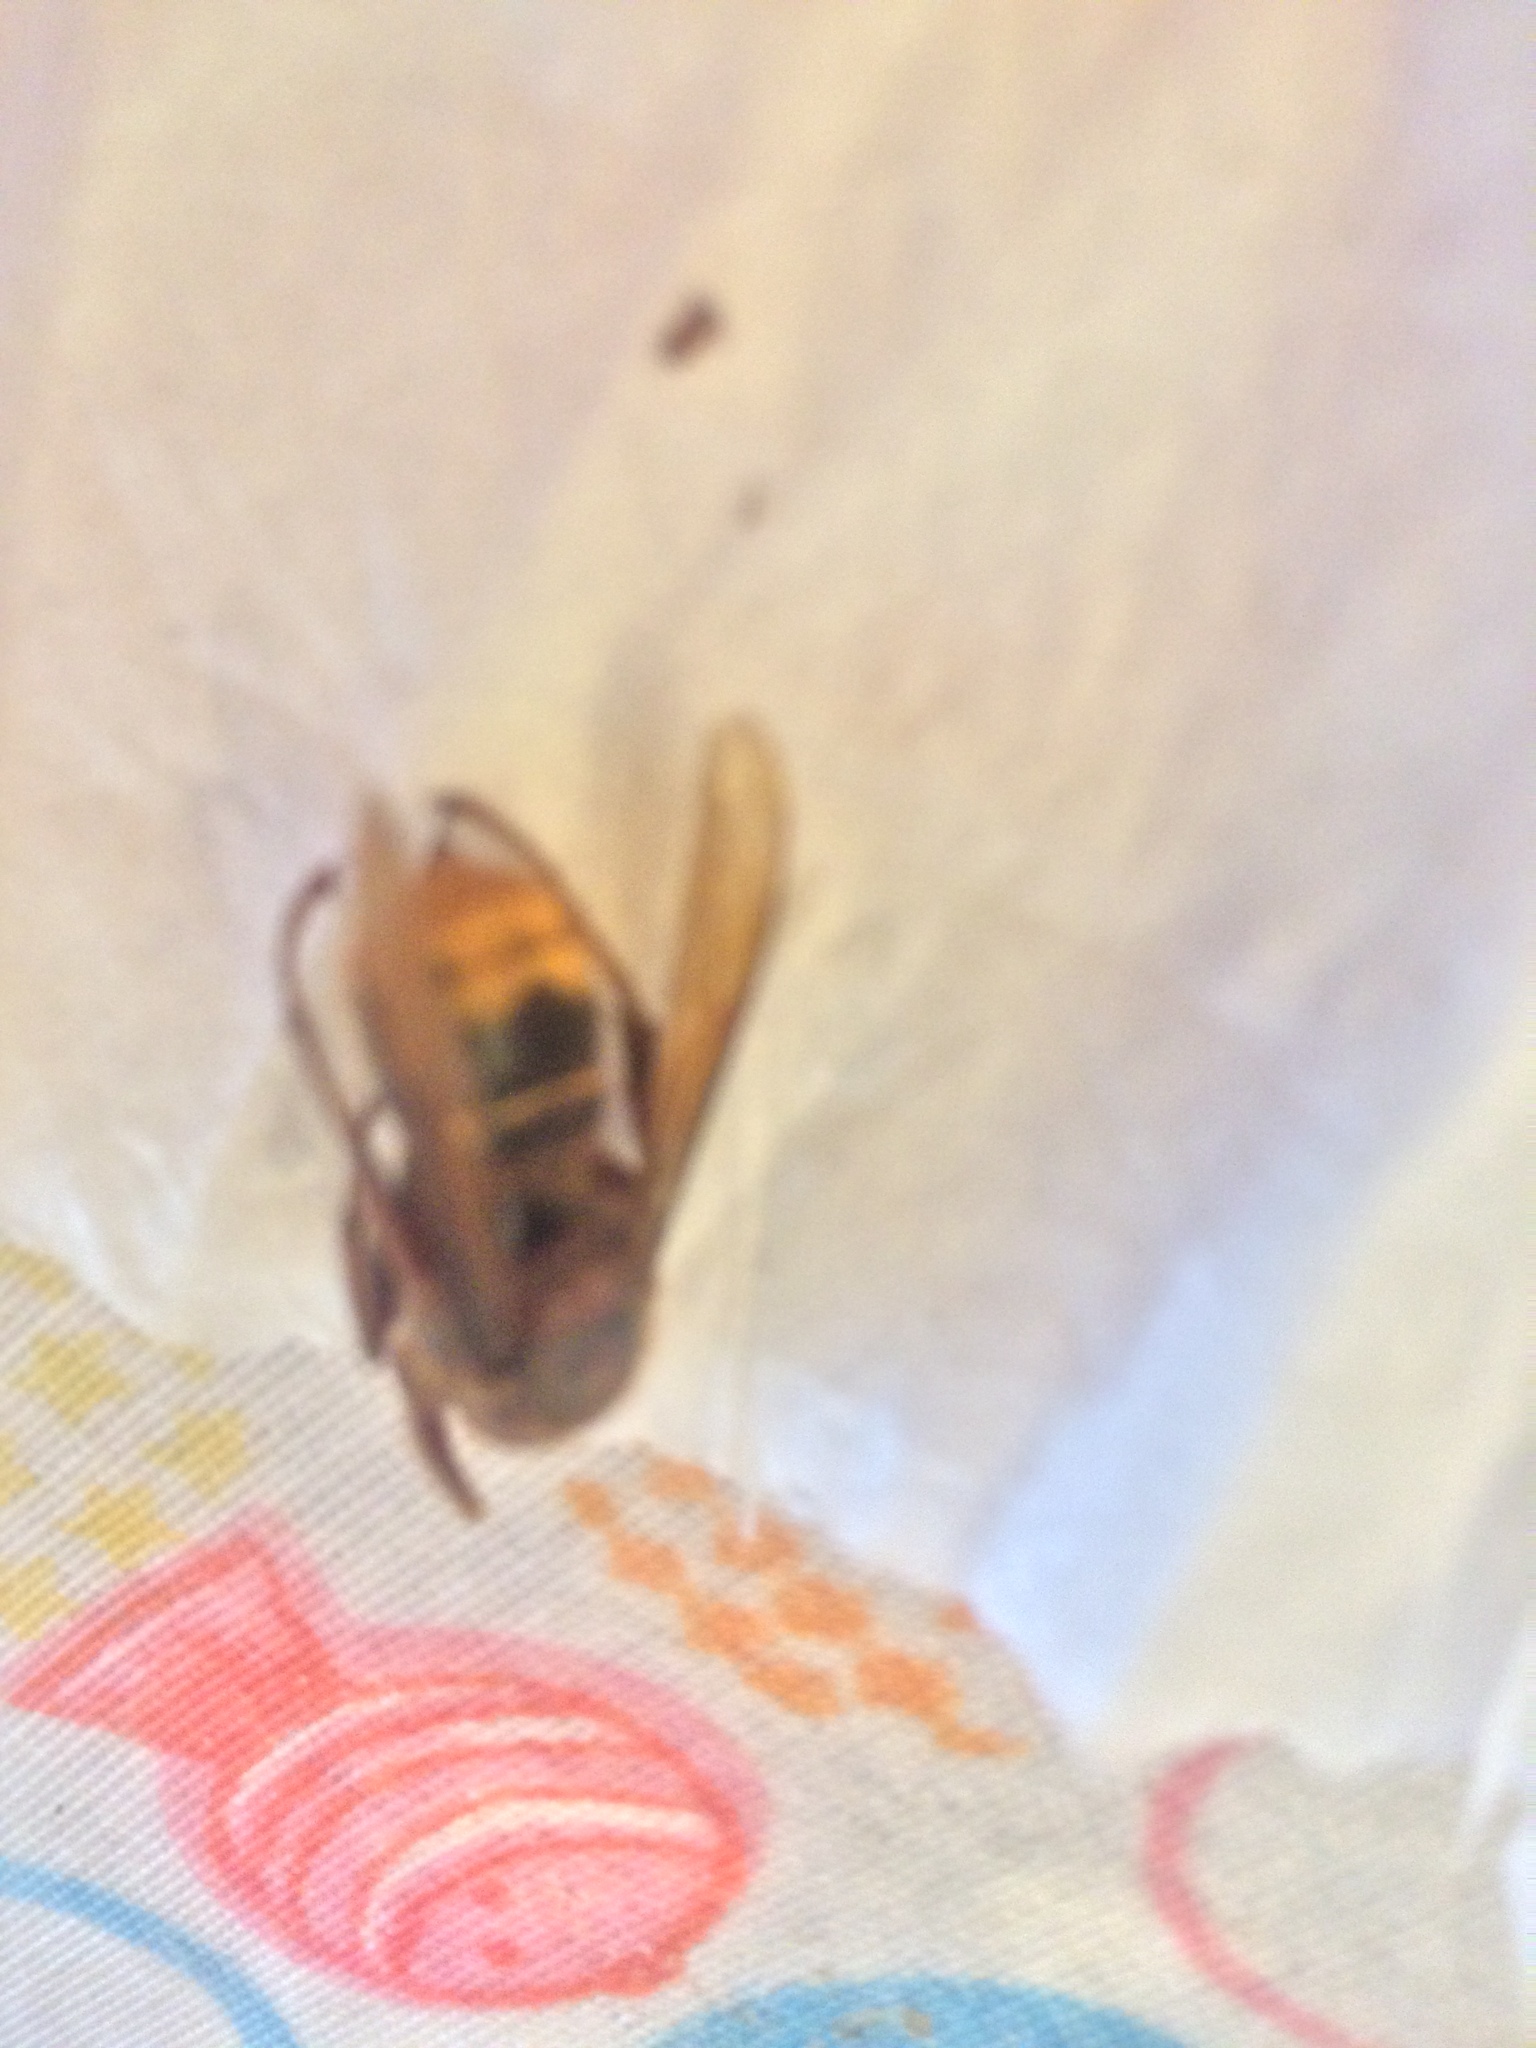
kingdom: Animalia
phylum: Arthropoda
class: Insecta
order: Hymenoptera
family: Vespidae
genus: Vespa
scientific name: Vespa crabro
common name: Hornet
